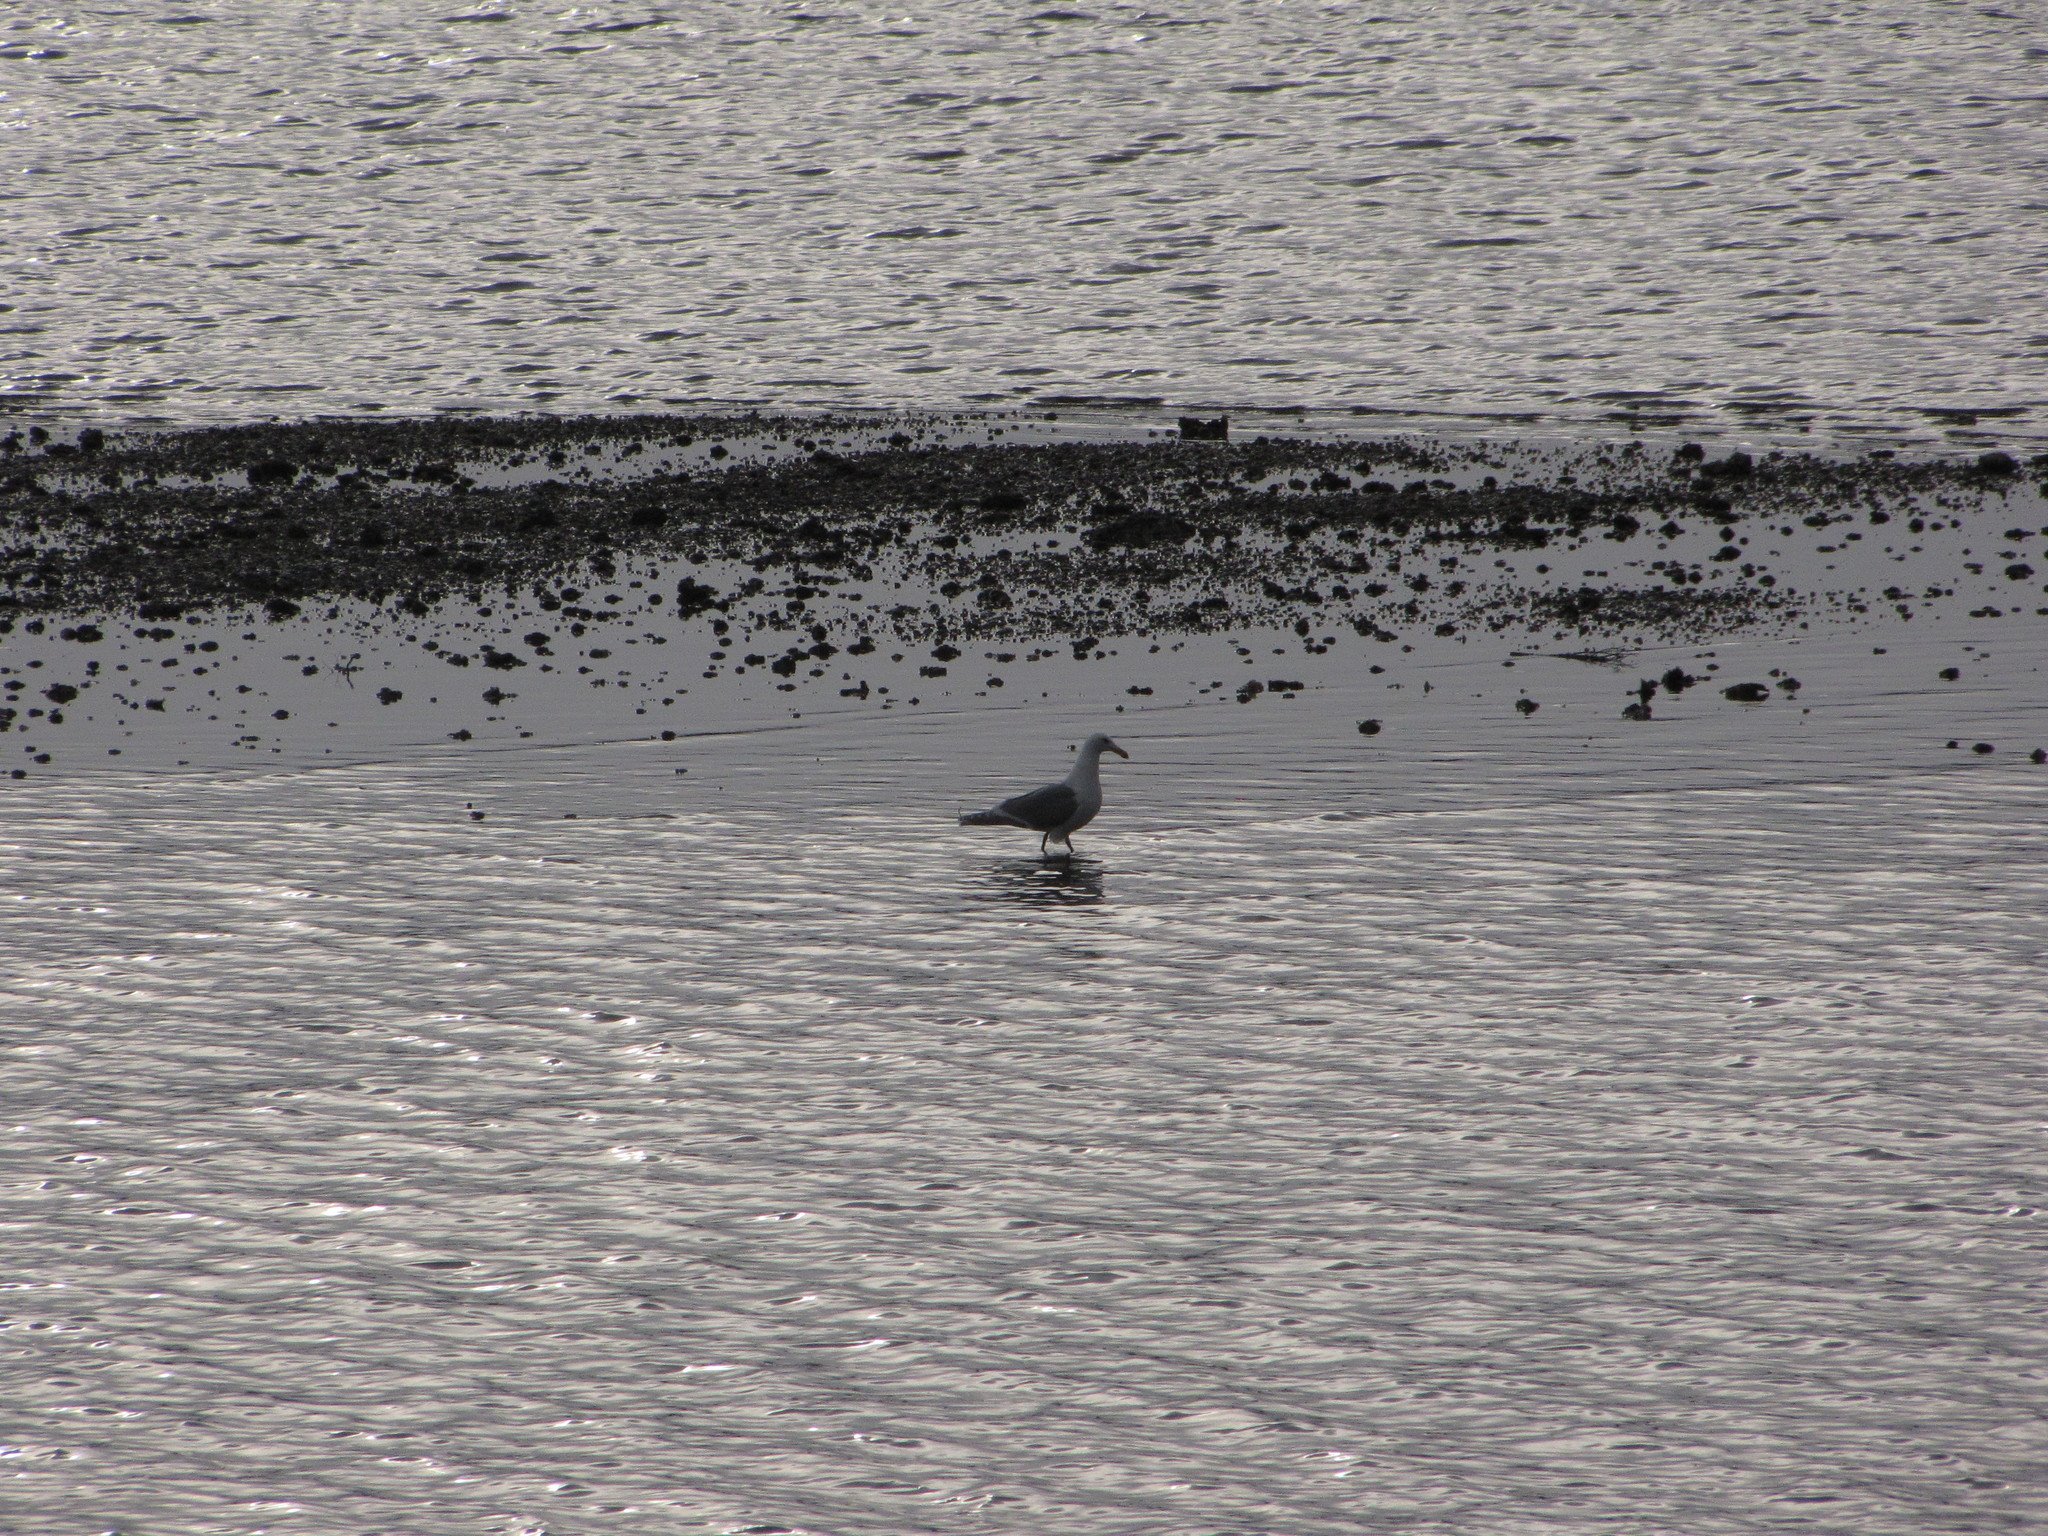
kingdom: Animalia
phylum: Chordata
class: Aves
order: Charadriiformes
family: Laridae
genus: Larus
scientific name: Larus glaucescens
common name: Glaucous-winged gull
